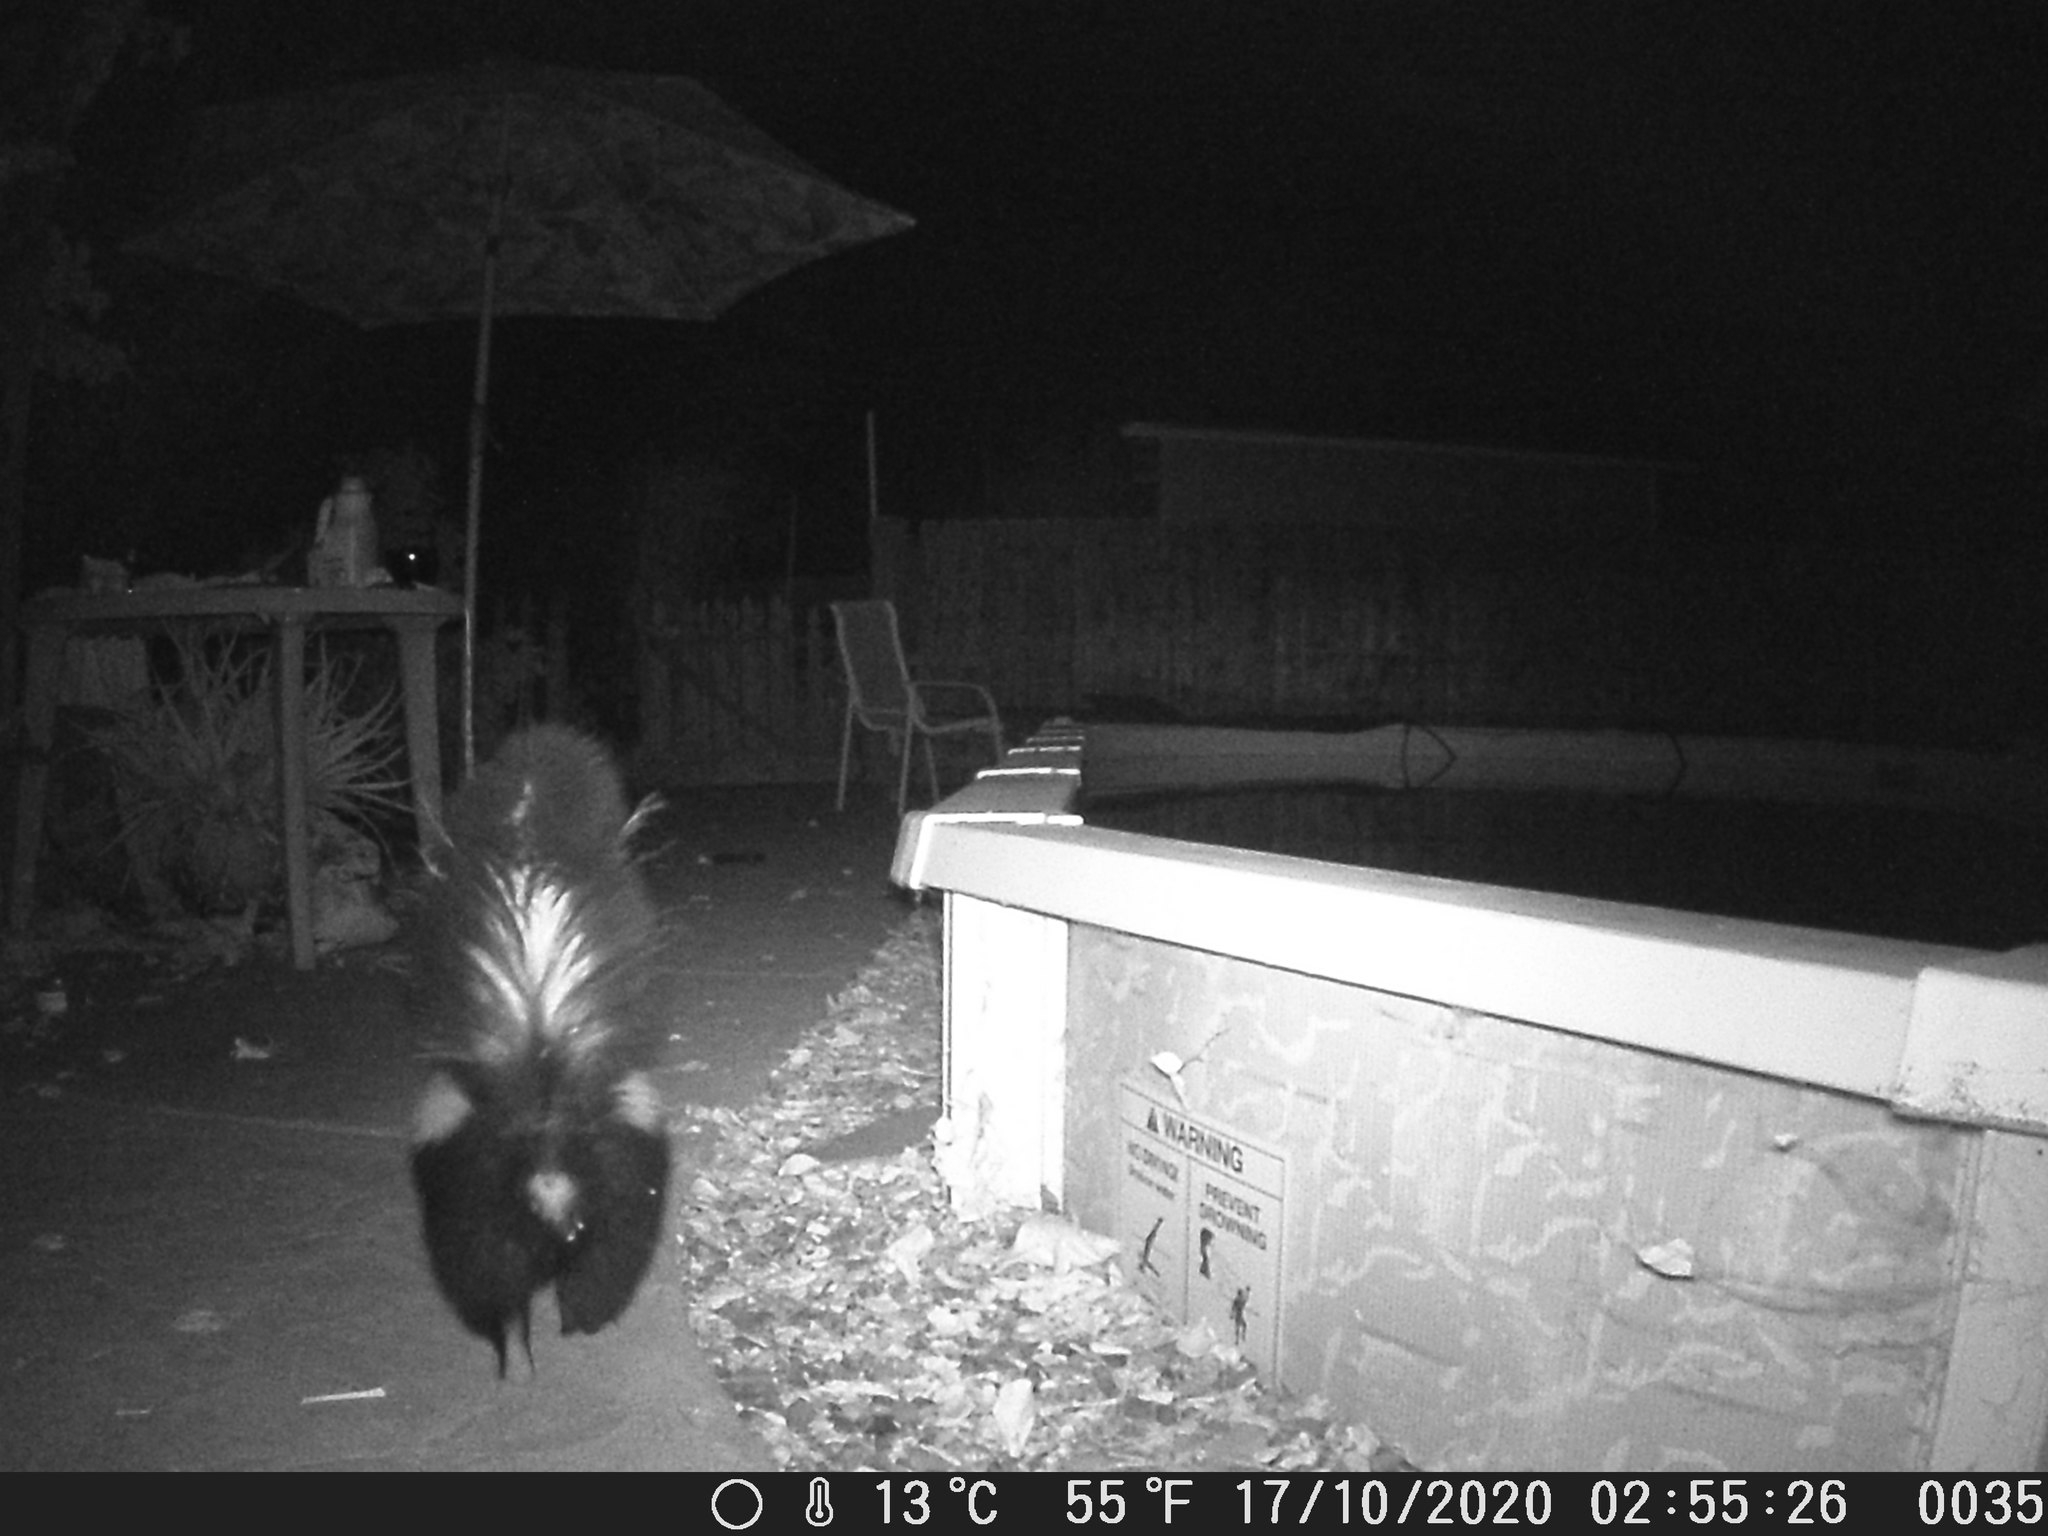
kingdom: Animalia
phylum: Chordata
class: Mammalia
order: Carnivora
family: Mephitidae
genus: Mephitis
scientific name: Mephitis mephitis
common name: Striped skunk
